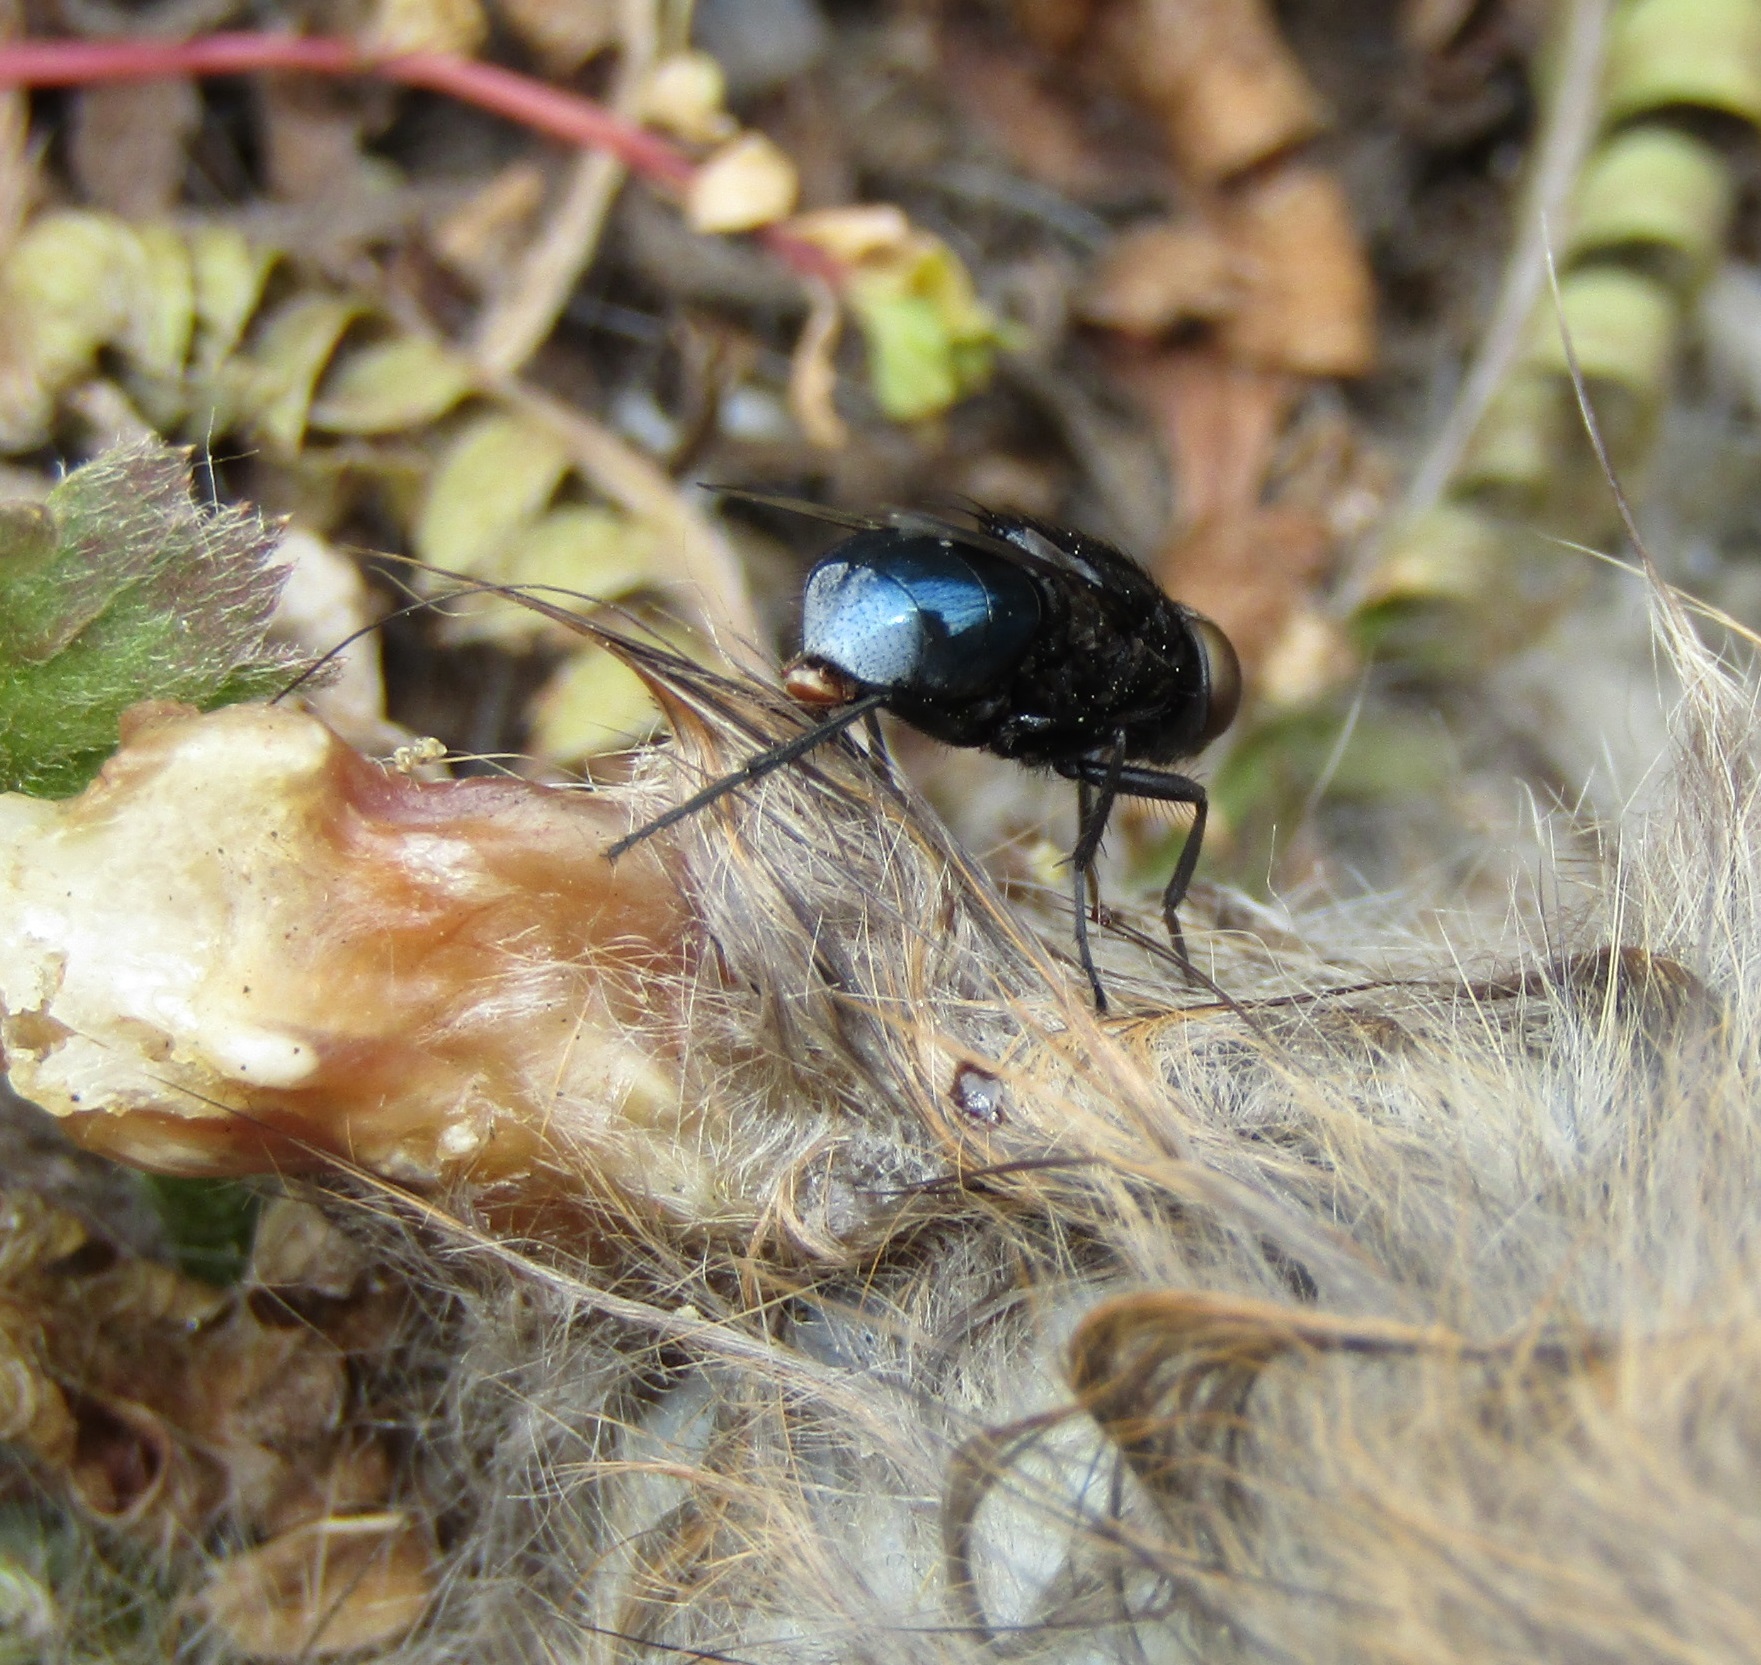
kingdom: Animalia
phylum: Arthropoda
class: Insecta
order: Diptera
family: Muscidae
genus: Australophyra
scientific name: Australophyra rostrata
